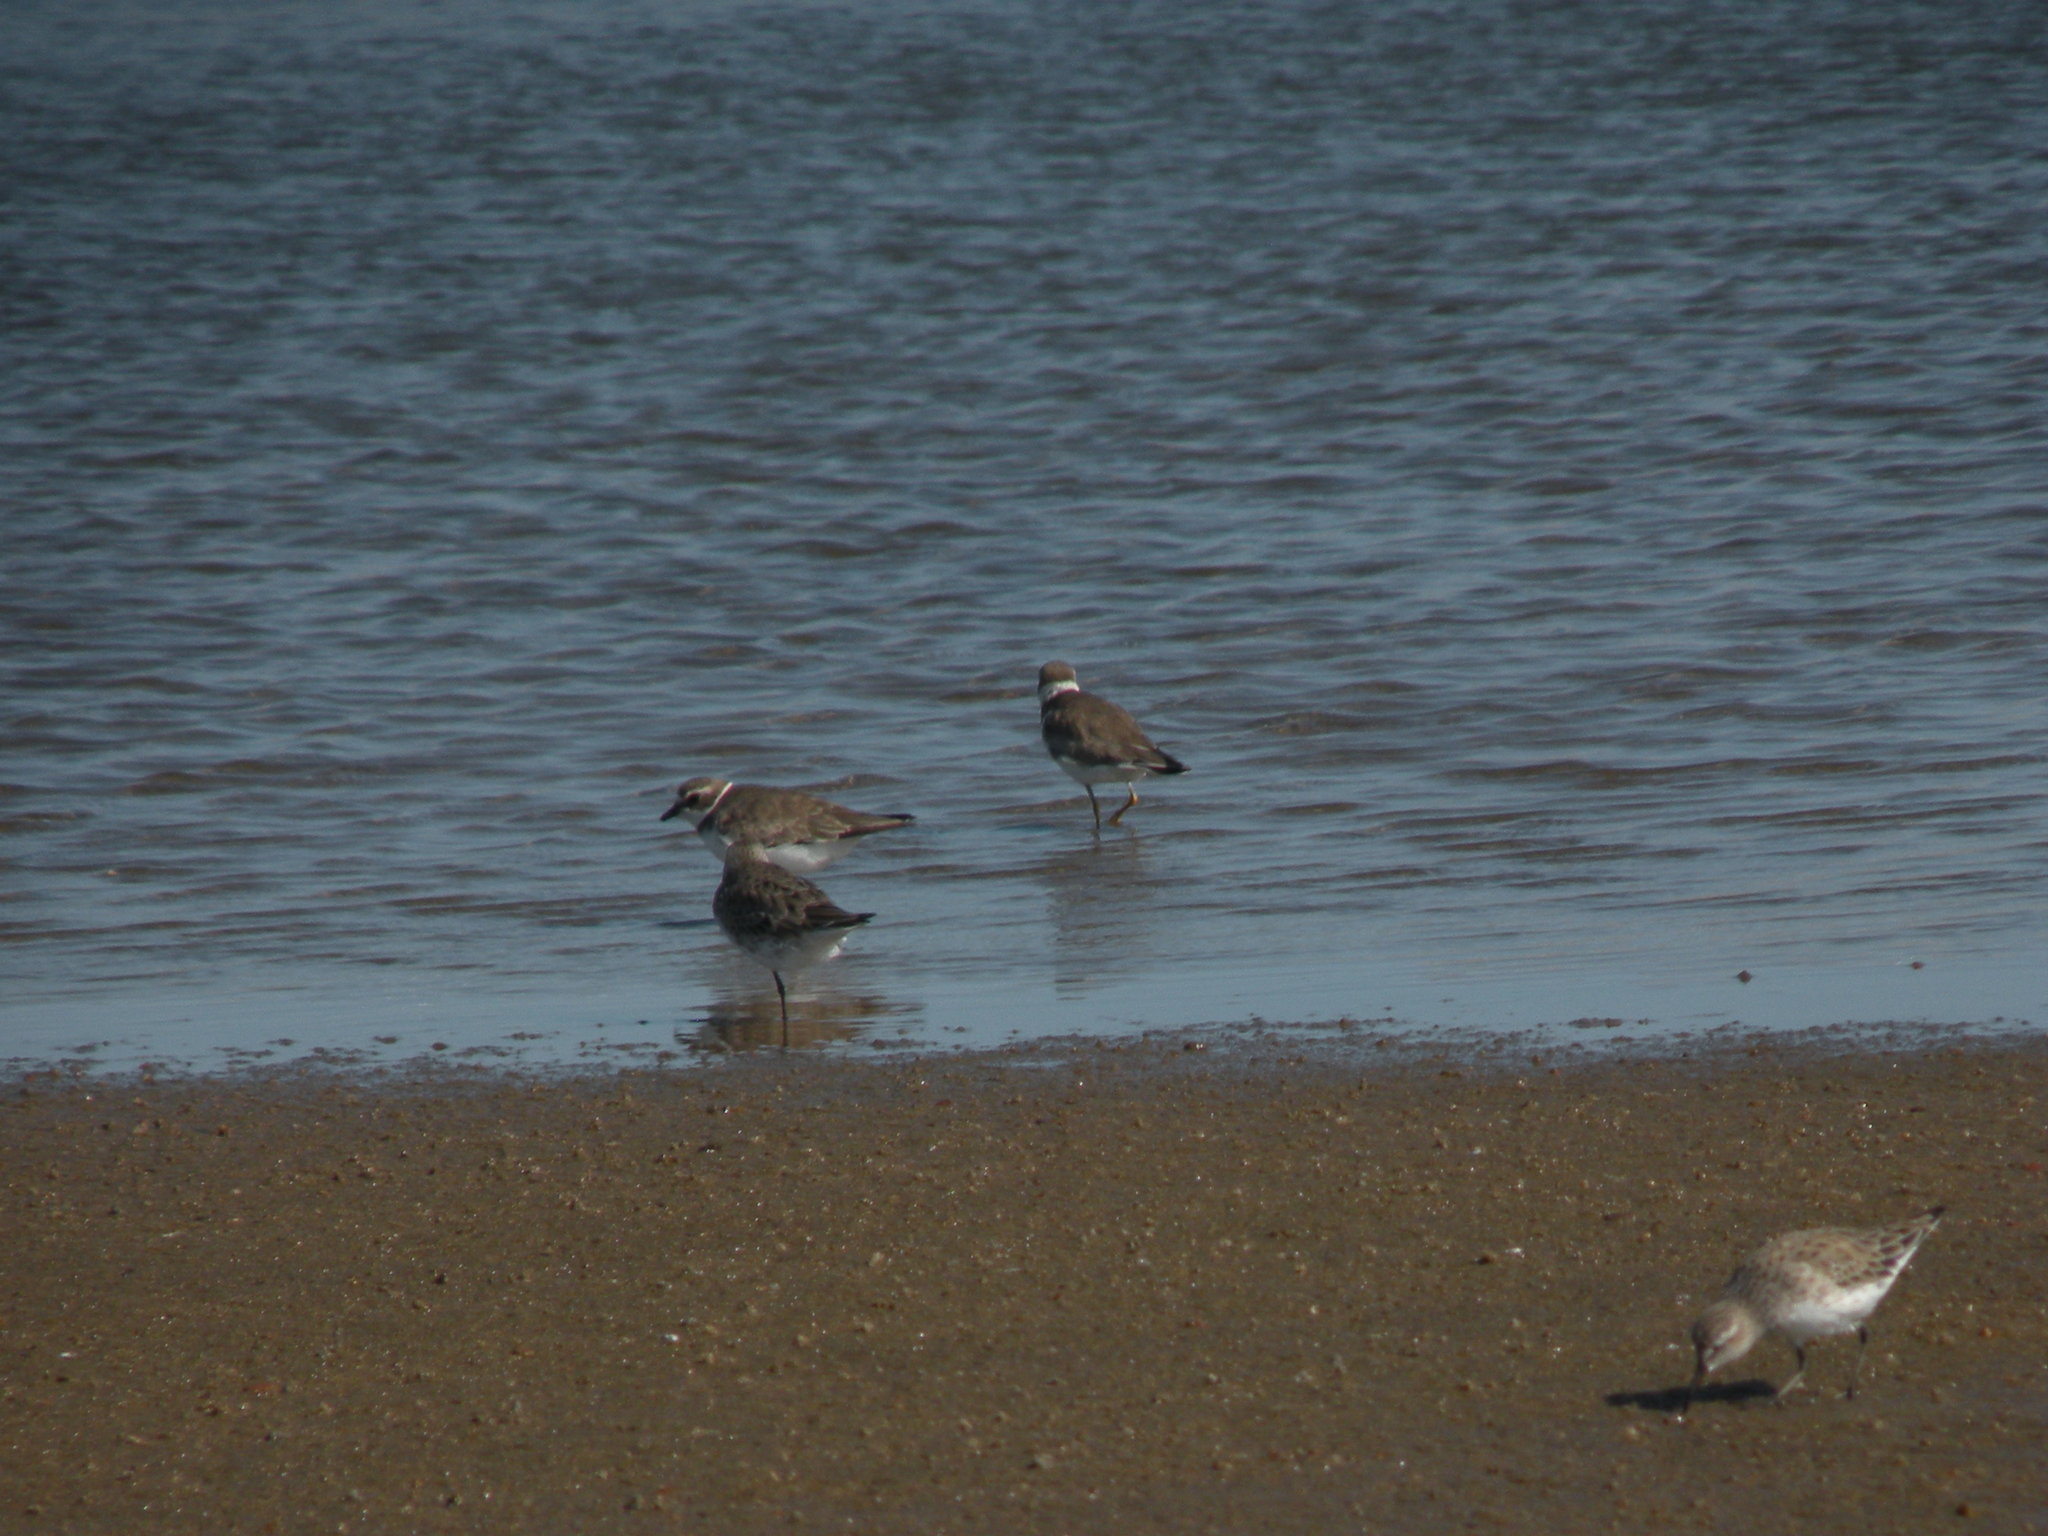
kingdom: Animalia
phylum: Chordata
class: Aves
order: Charadriiformes
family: Charadriidae
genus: Charadrius
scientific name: Charadrius semipalmatus
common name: Semipalmated plover
